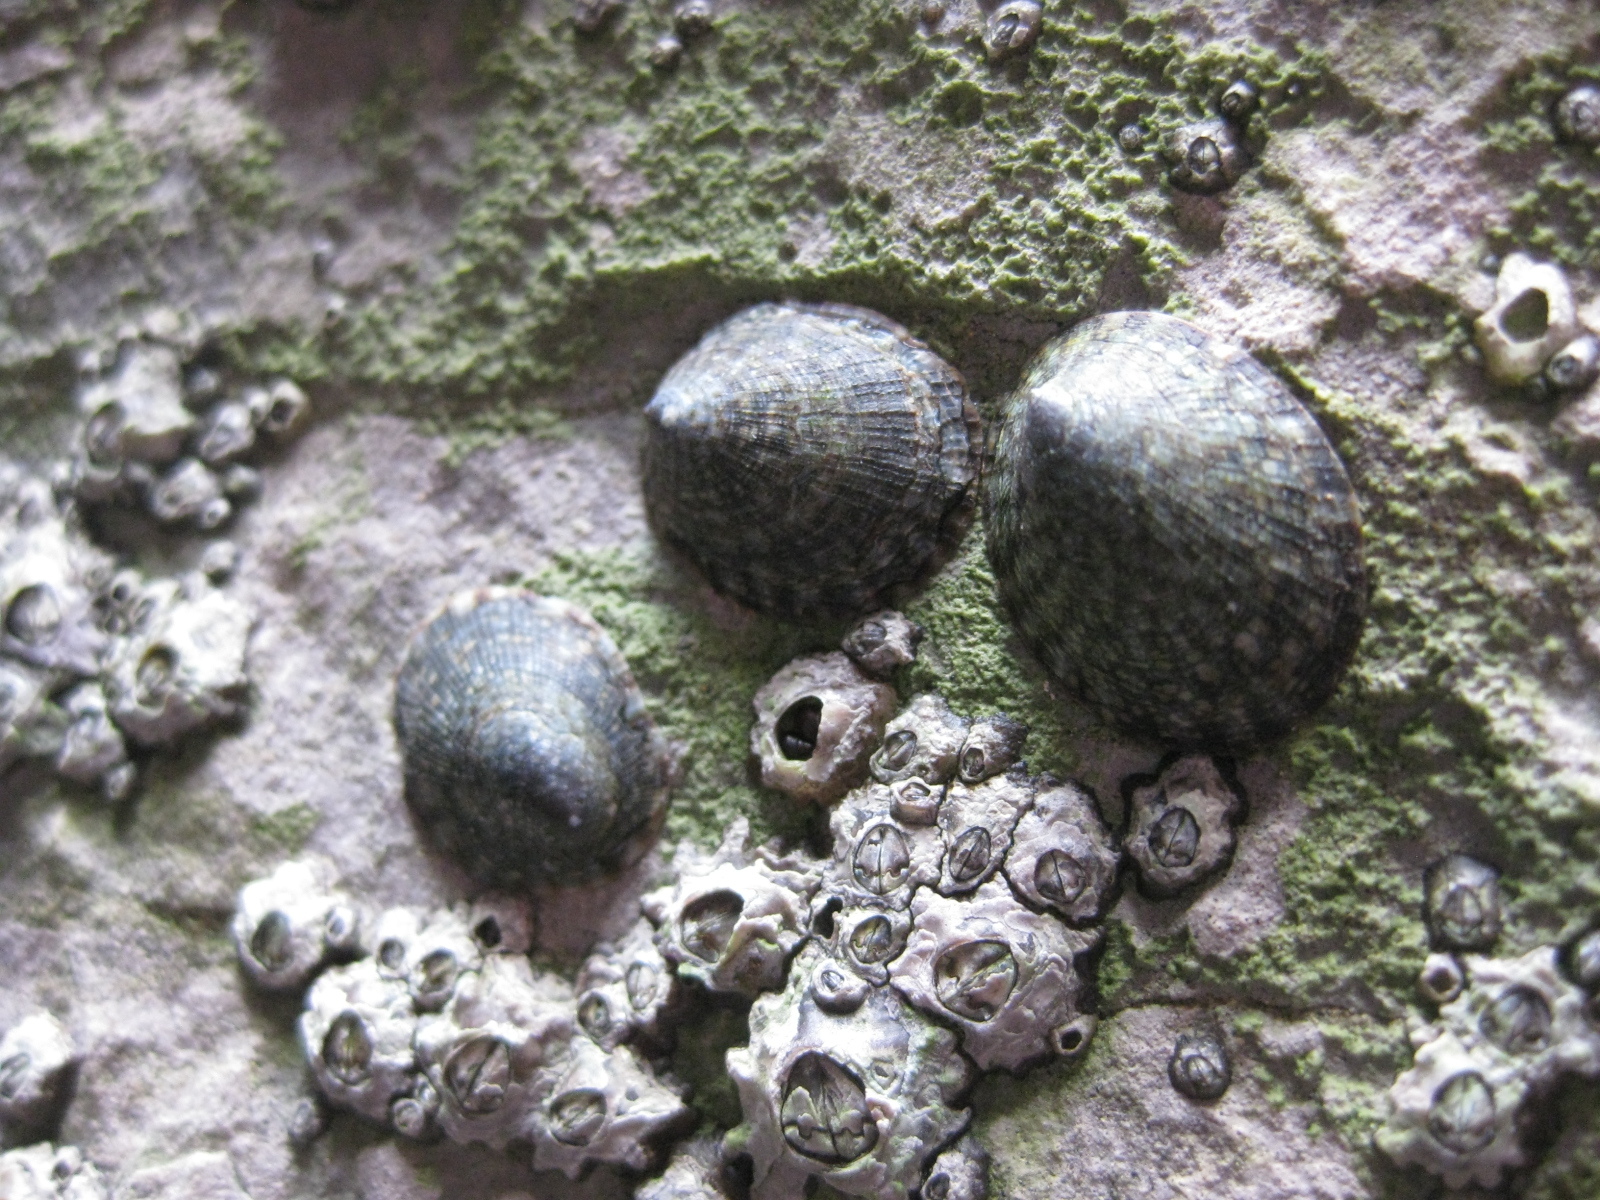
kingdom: Animalia
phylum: Mollusca
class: Gastropoda
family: Lottiidae
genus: Notoacmea
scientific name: Notoacmea pileopsis
